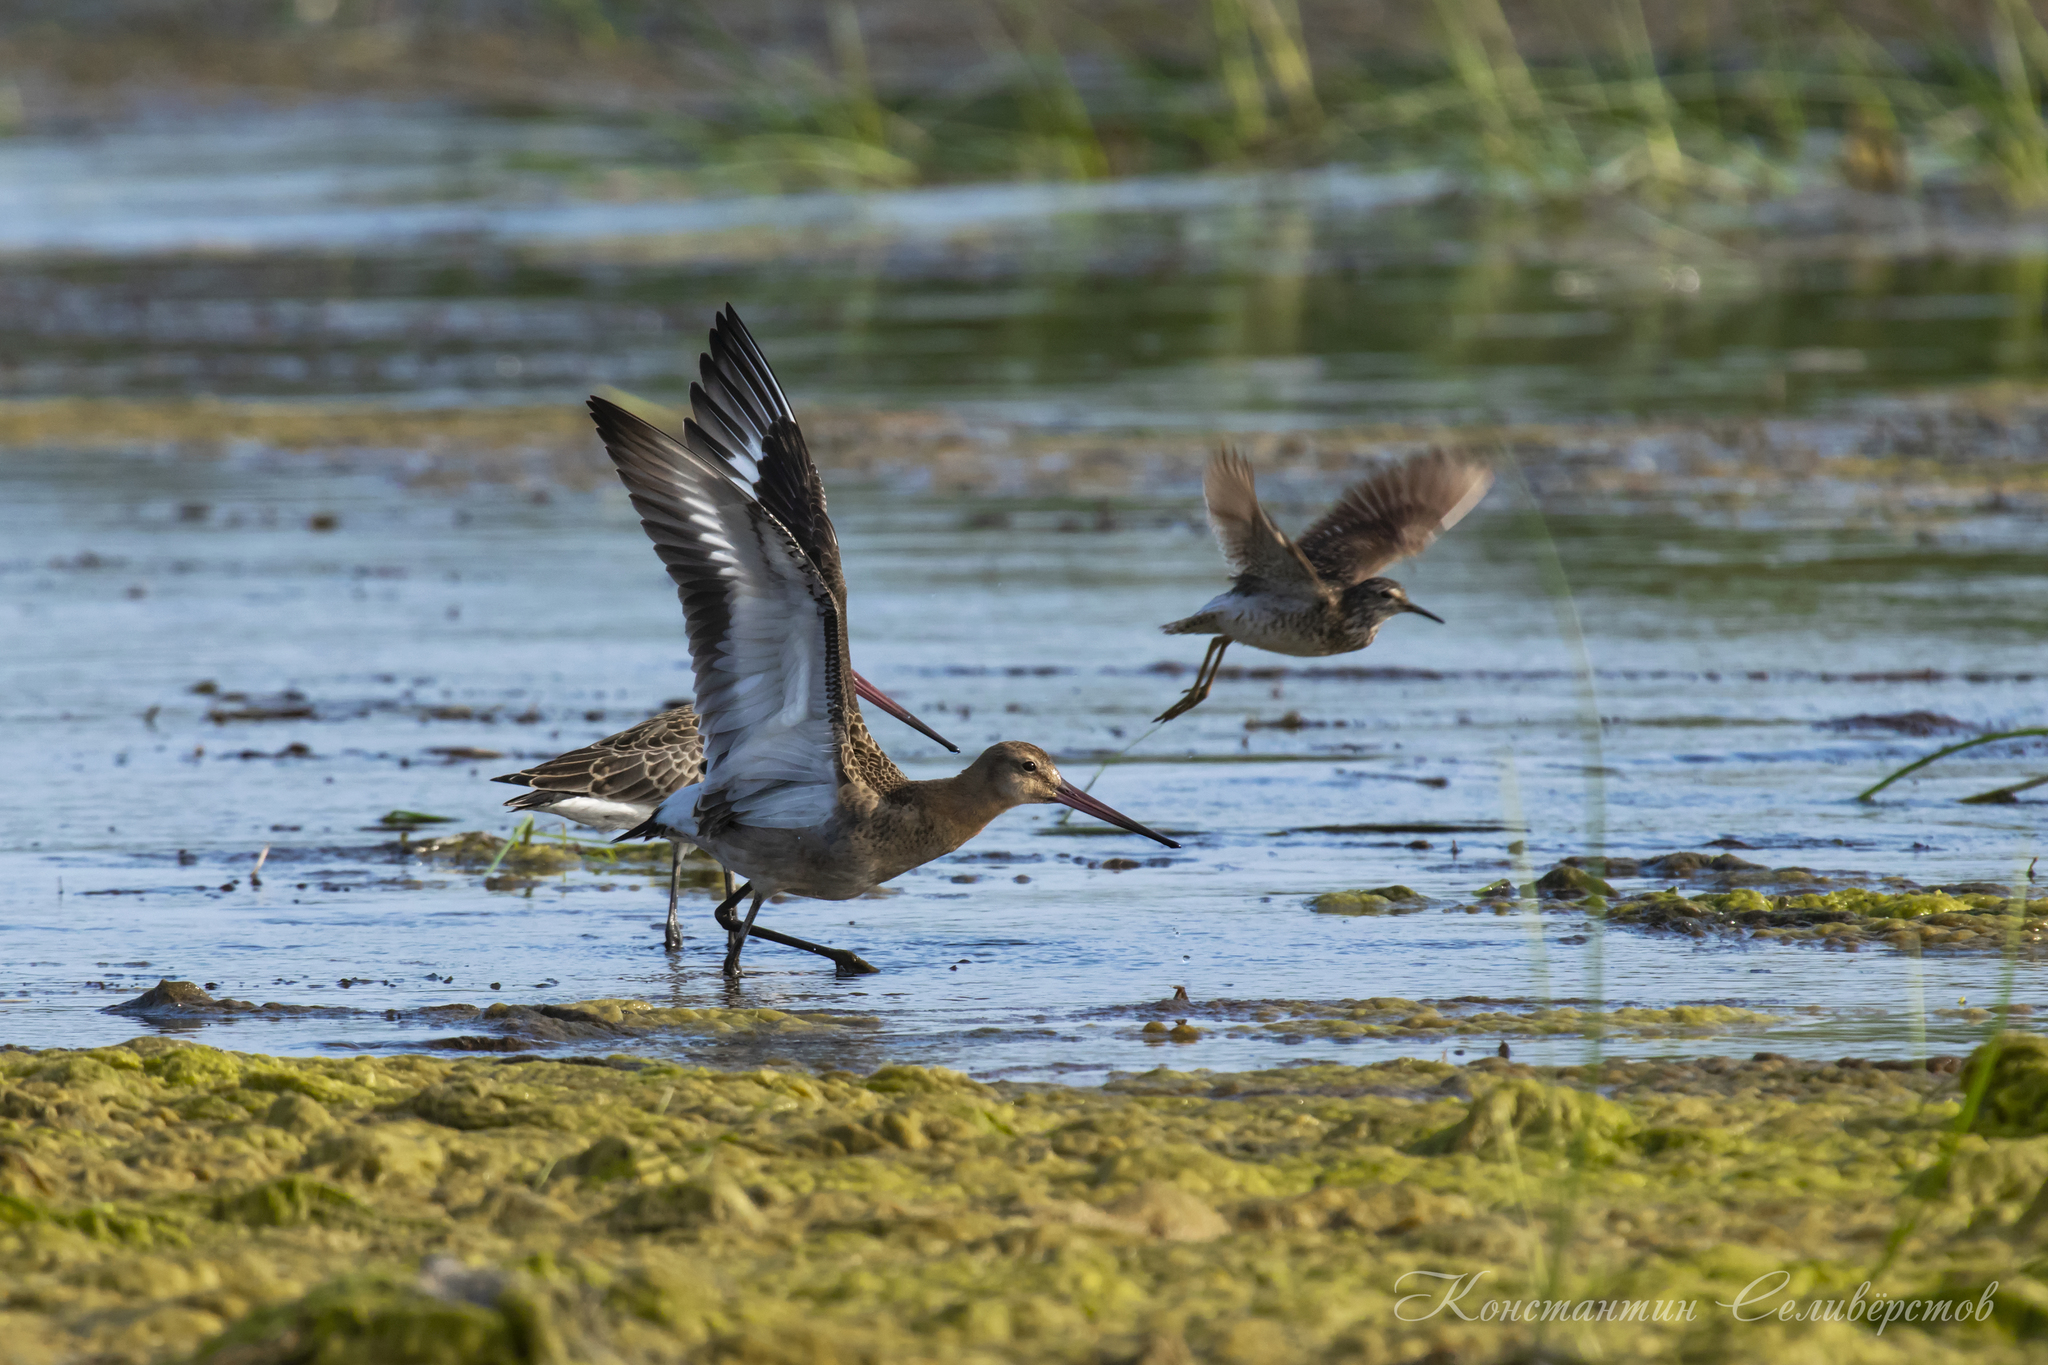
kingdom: Animalia
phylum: Chordata
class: Aves
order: Charadriiformes
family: Scolopacidae
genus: Limosa
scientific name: Limosa limosa
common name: Black-tailed godwit
